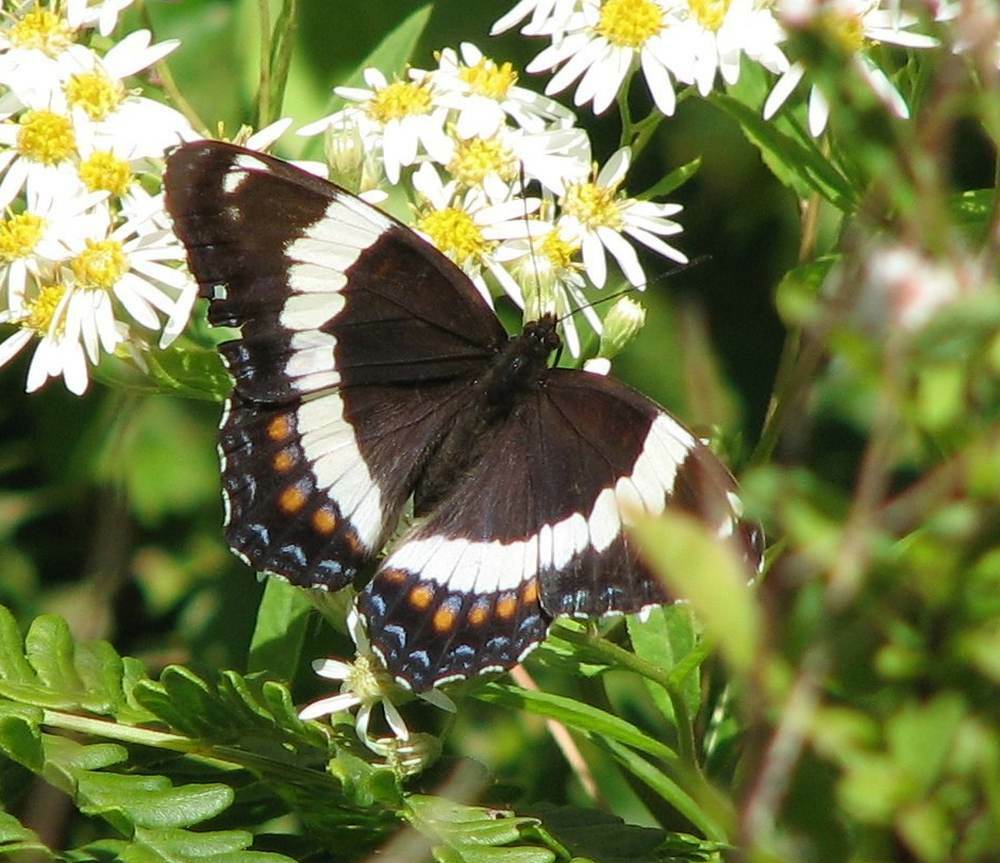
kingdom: Animalia
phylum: Arthropoda
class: Insecta
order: Lepidoptera
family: Nymphalidae
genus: Limenitis
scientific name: Limenitis arthemis
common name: Red-spotted admiral
